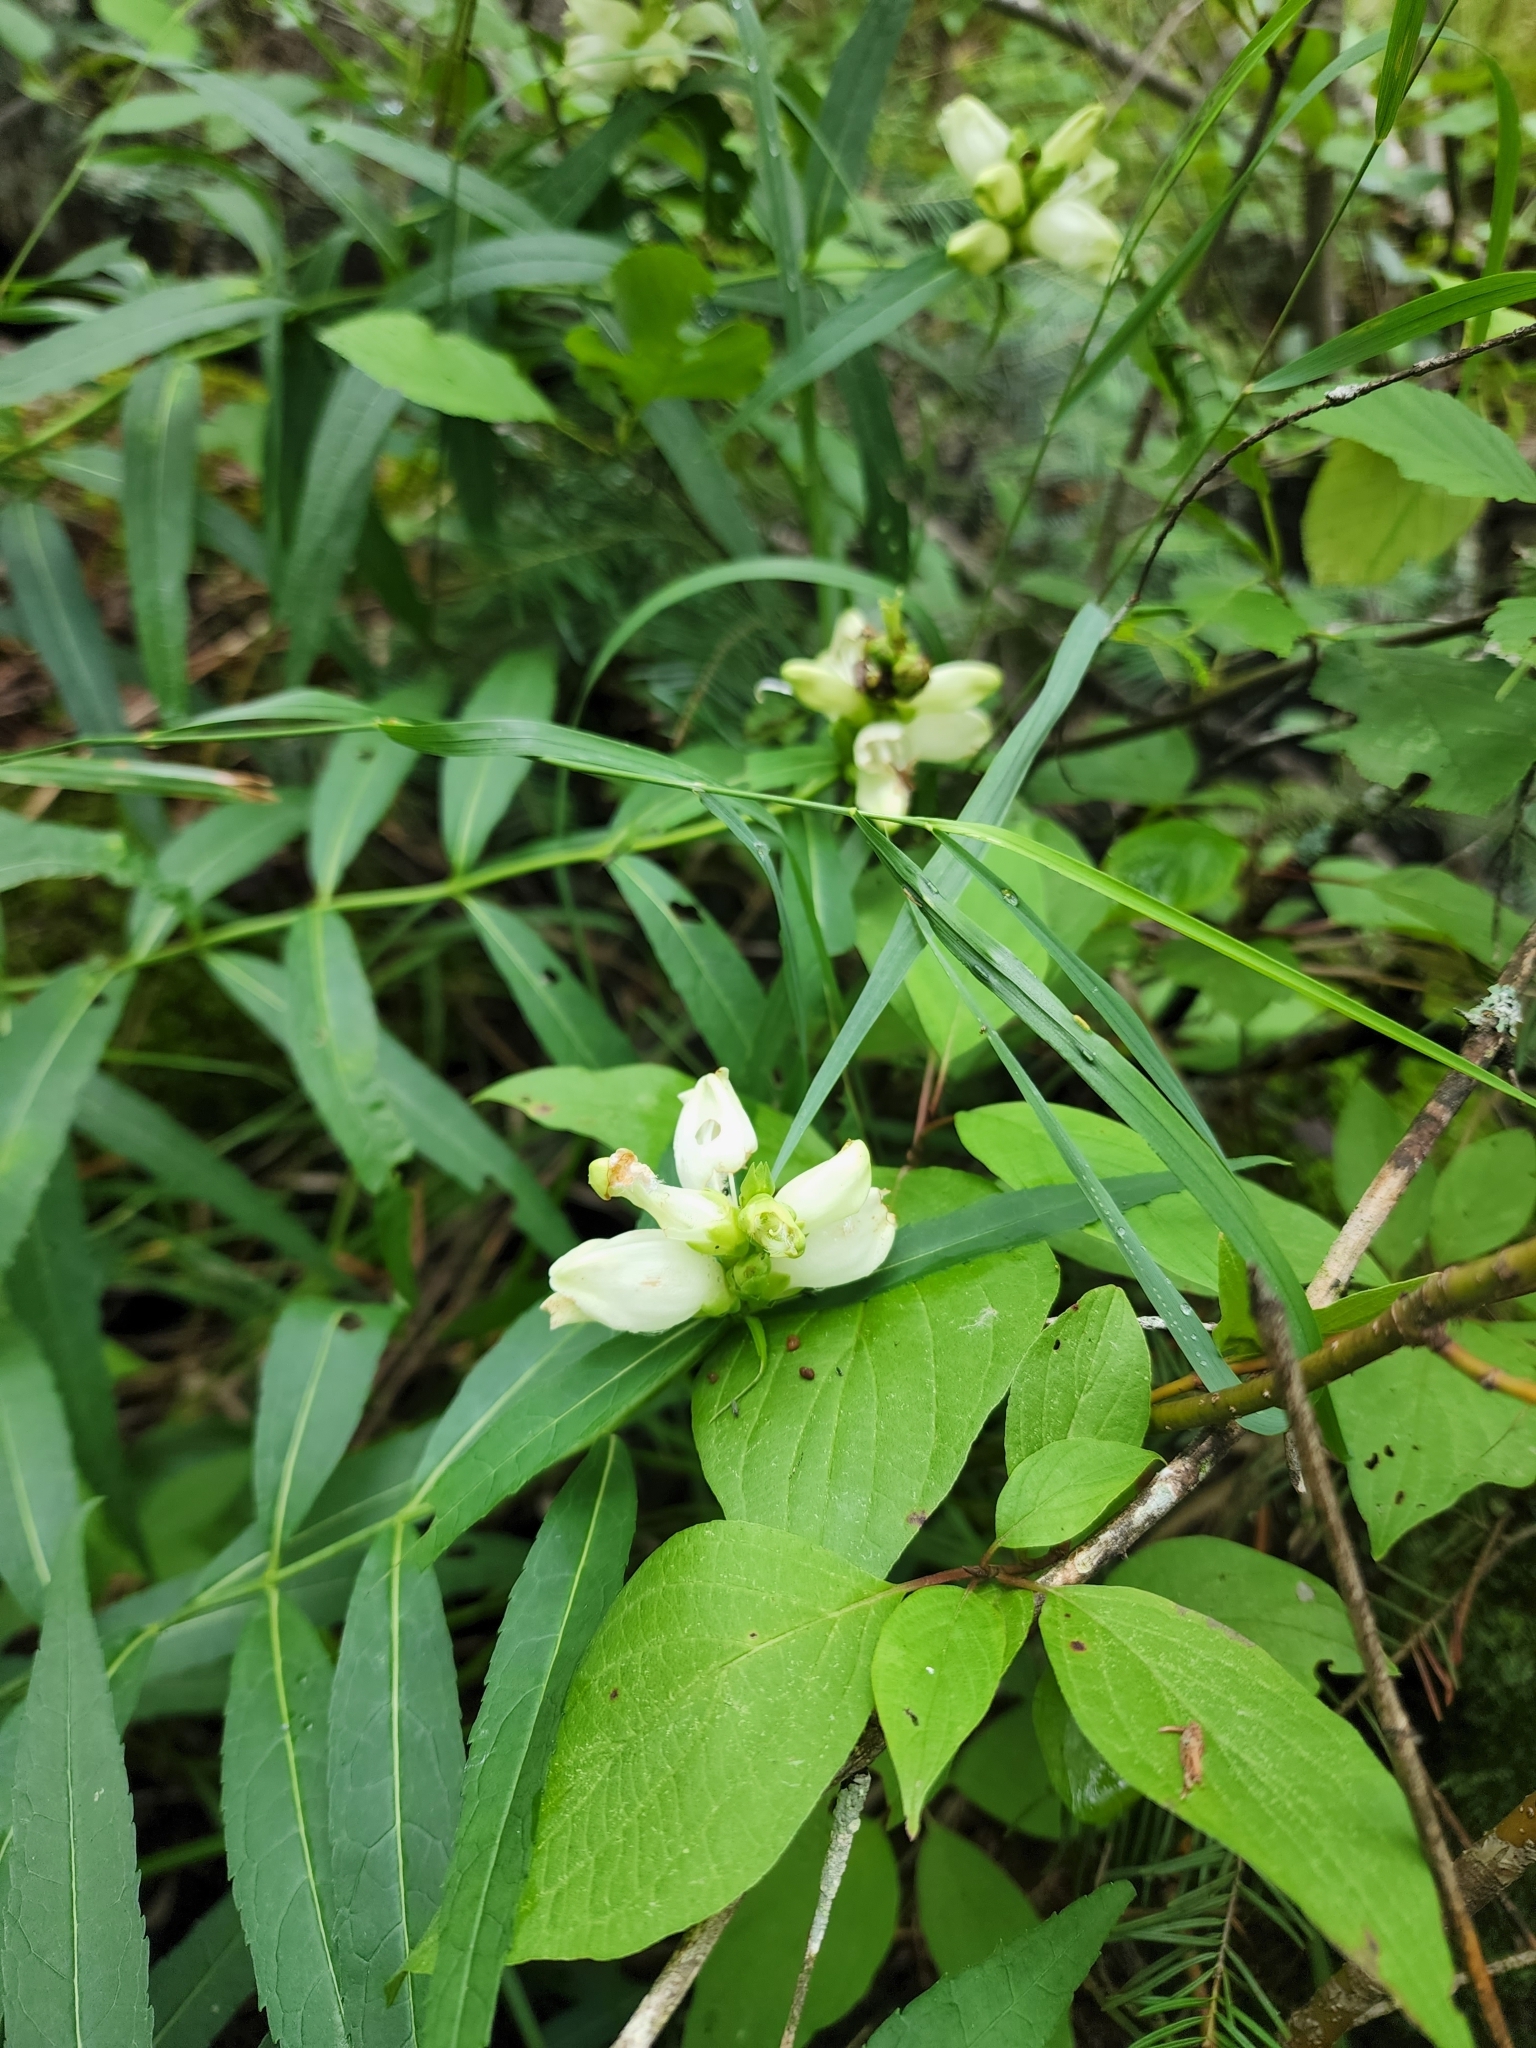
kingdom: Plantae
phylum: Tracheophyta
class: Magnoliopsida
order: Lamiales
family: Plantaginaceae
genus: Chelone
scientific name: Chelone glabra
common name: Snakehead
